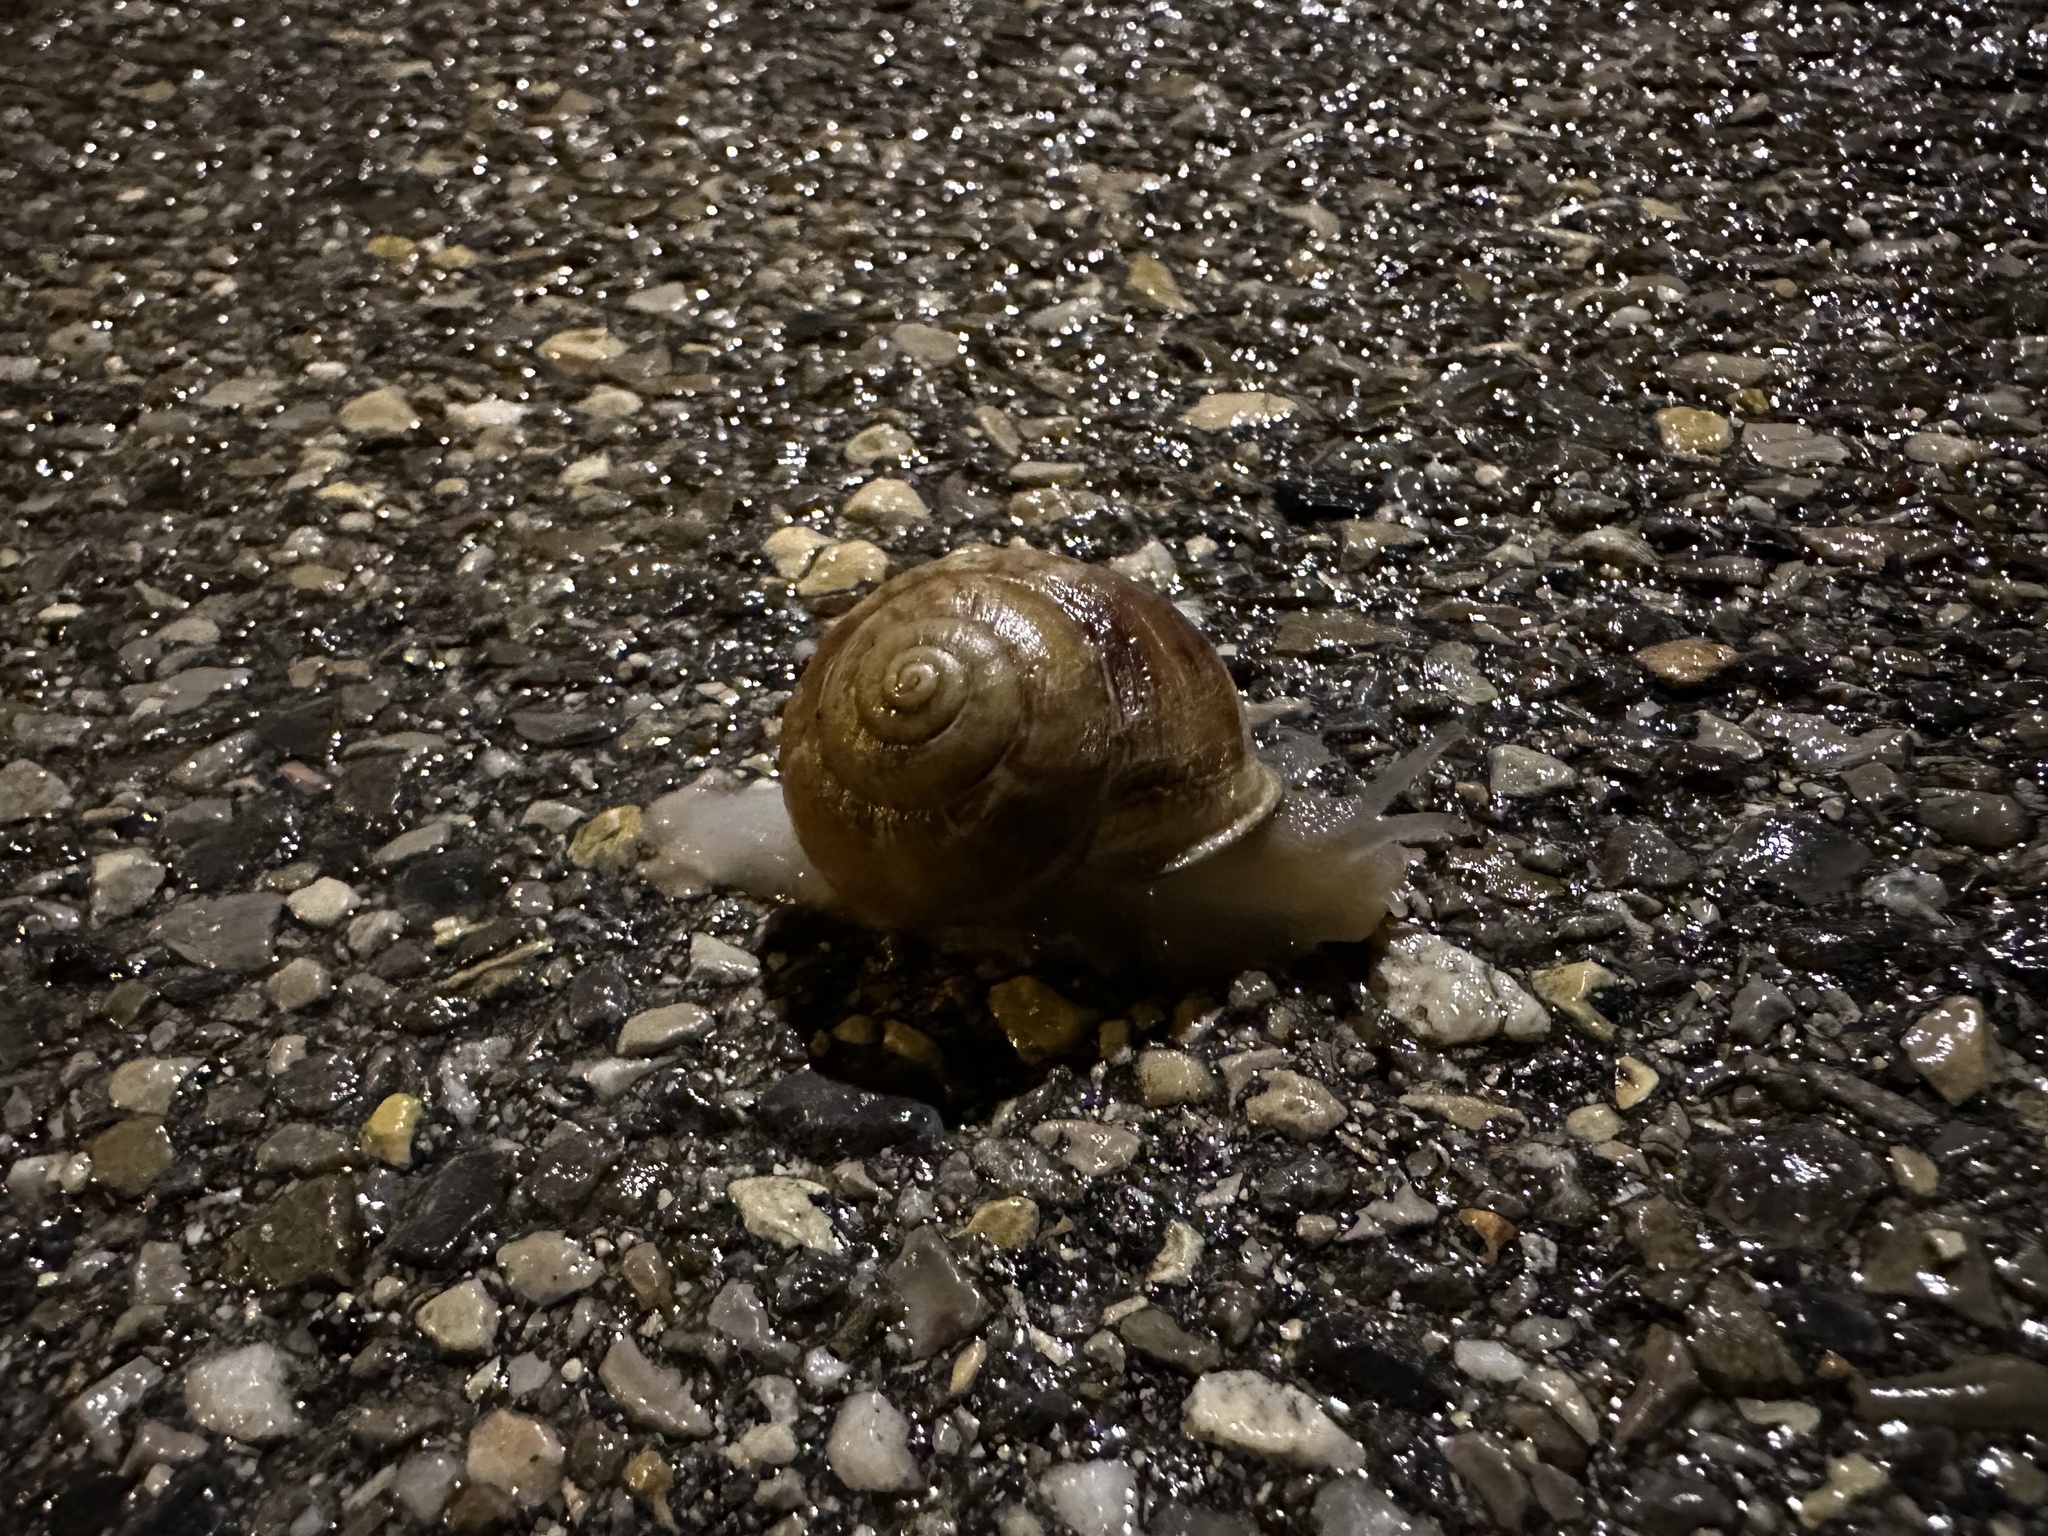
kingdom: Animalia
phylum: Mollusca
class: Gastropoda
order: Stylommatophora
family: Helicidae
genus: Eobania
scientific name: Eobania vermiculata
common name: Chocolateband snail
